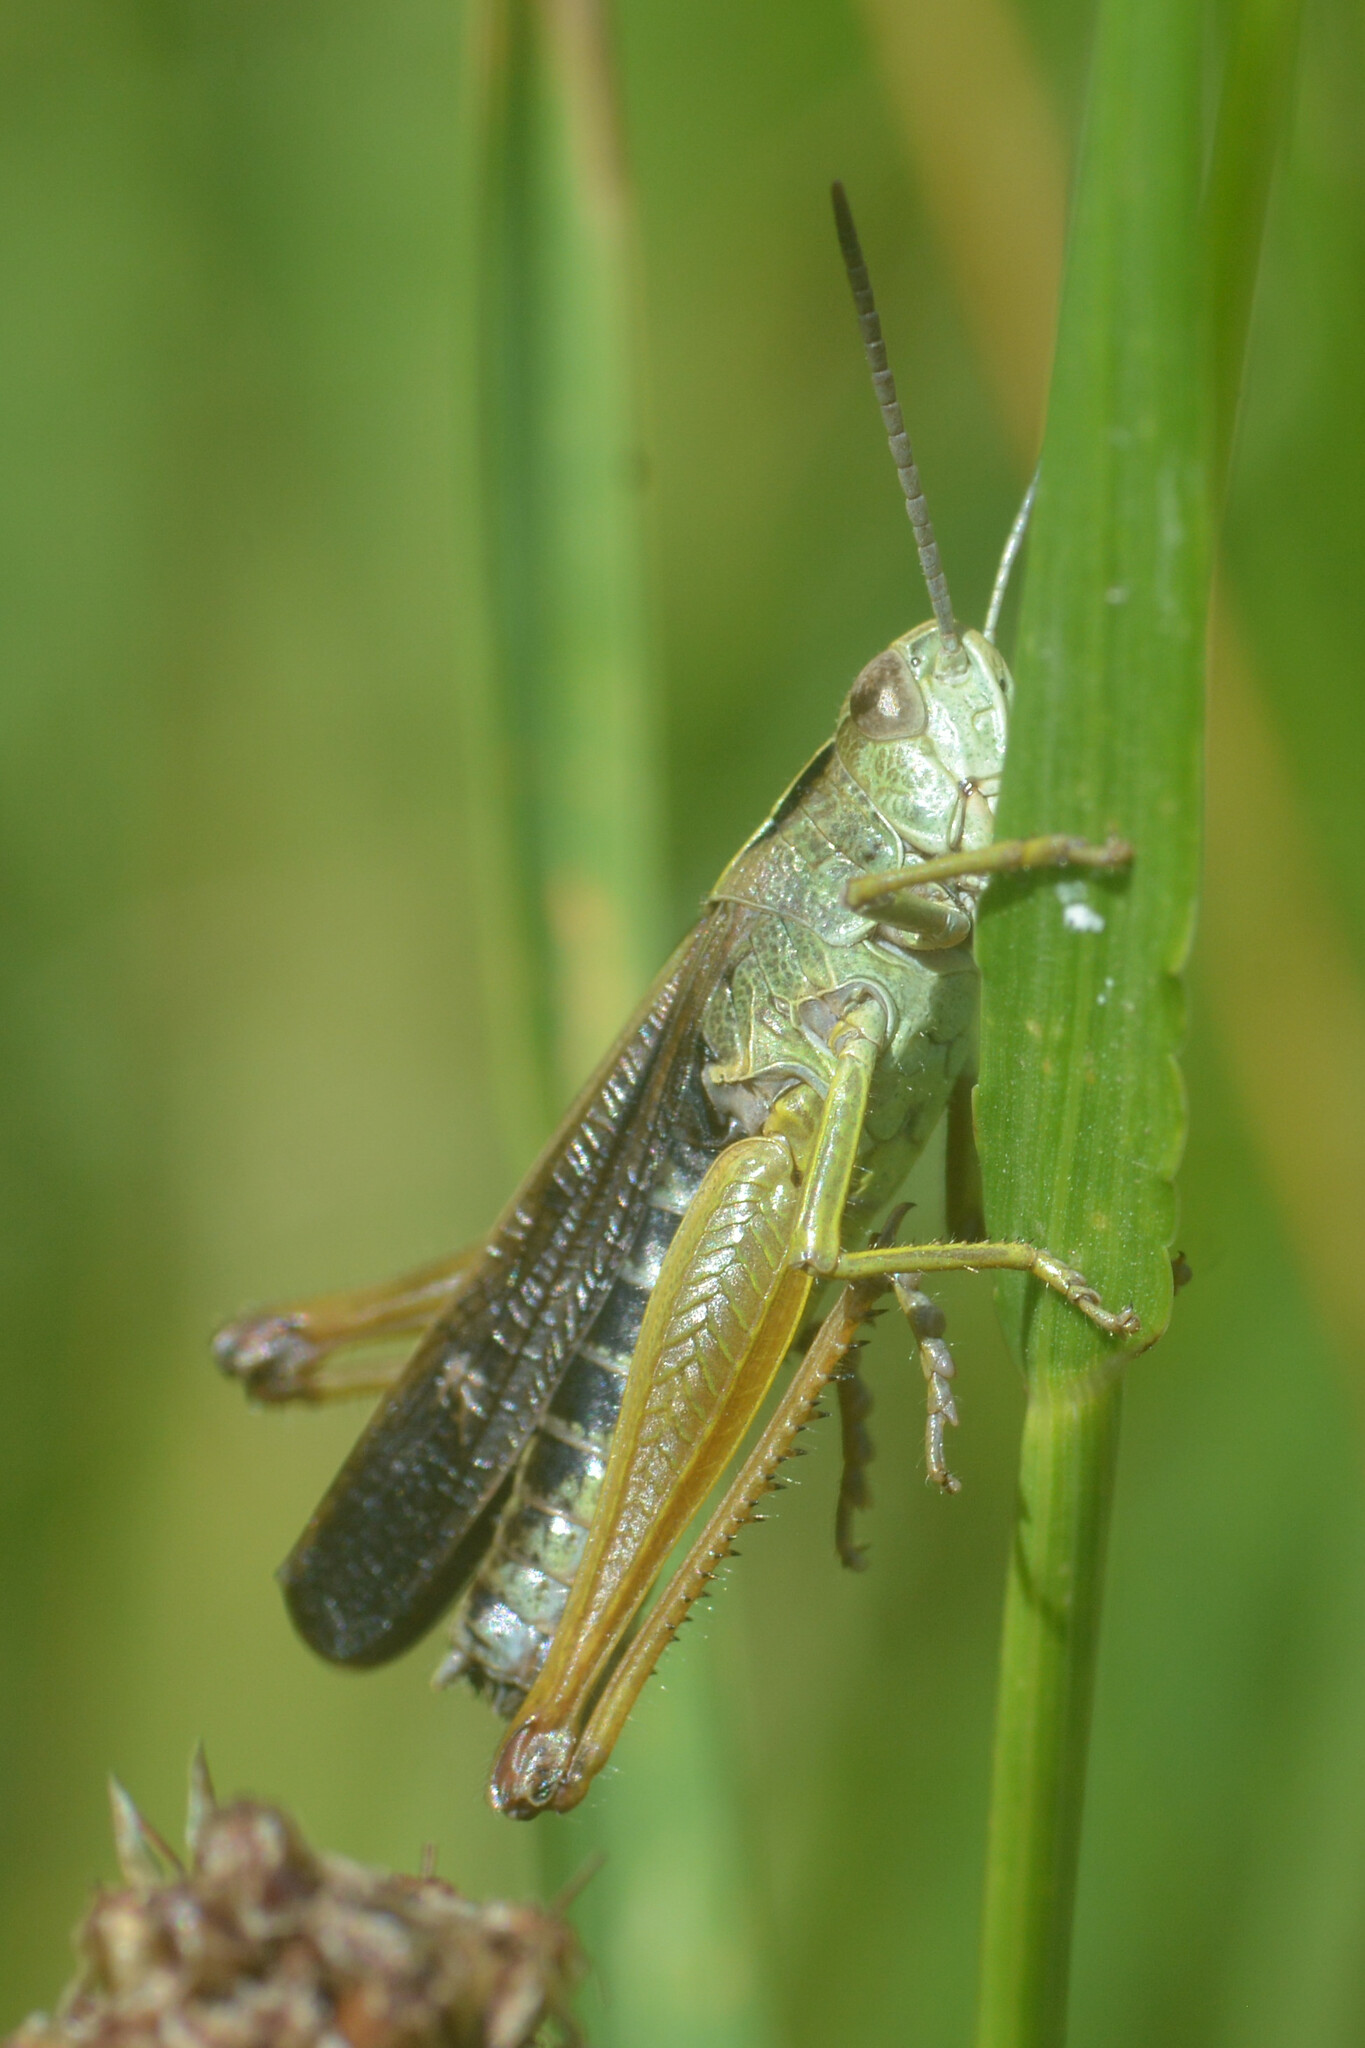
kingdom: Animalia
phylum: Arthropoda
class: Insecta
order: Orthoptera
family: Acrididae
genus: Omocestus
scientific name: Omocestus viridulus
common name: Common green grasshopper
